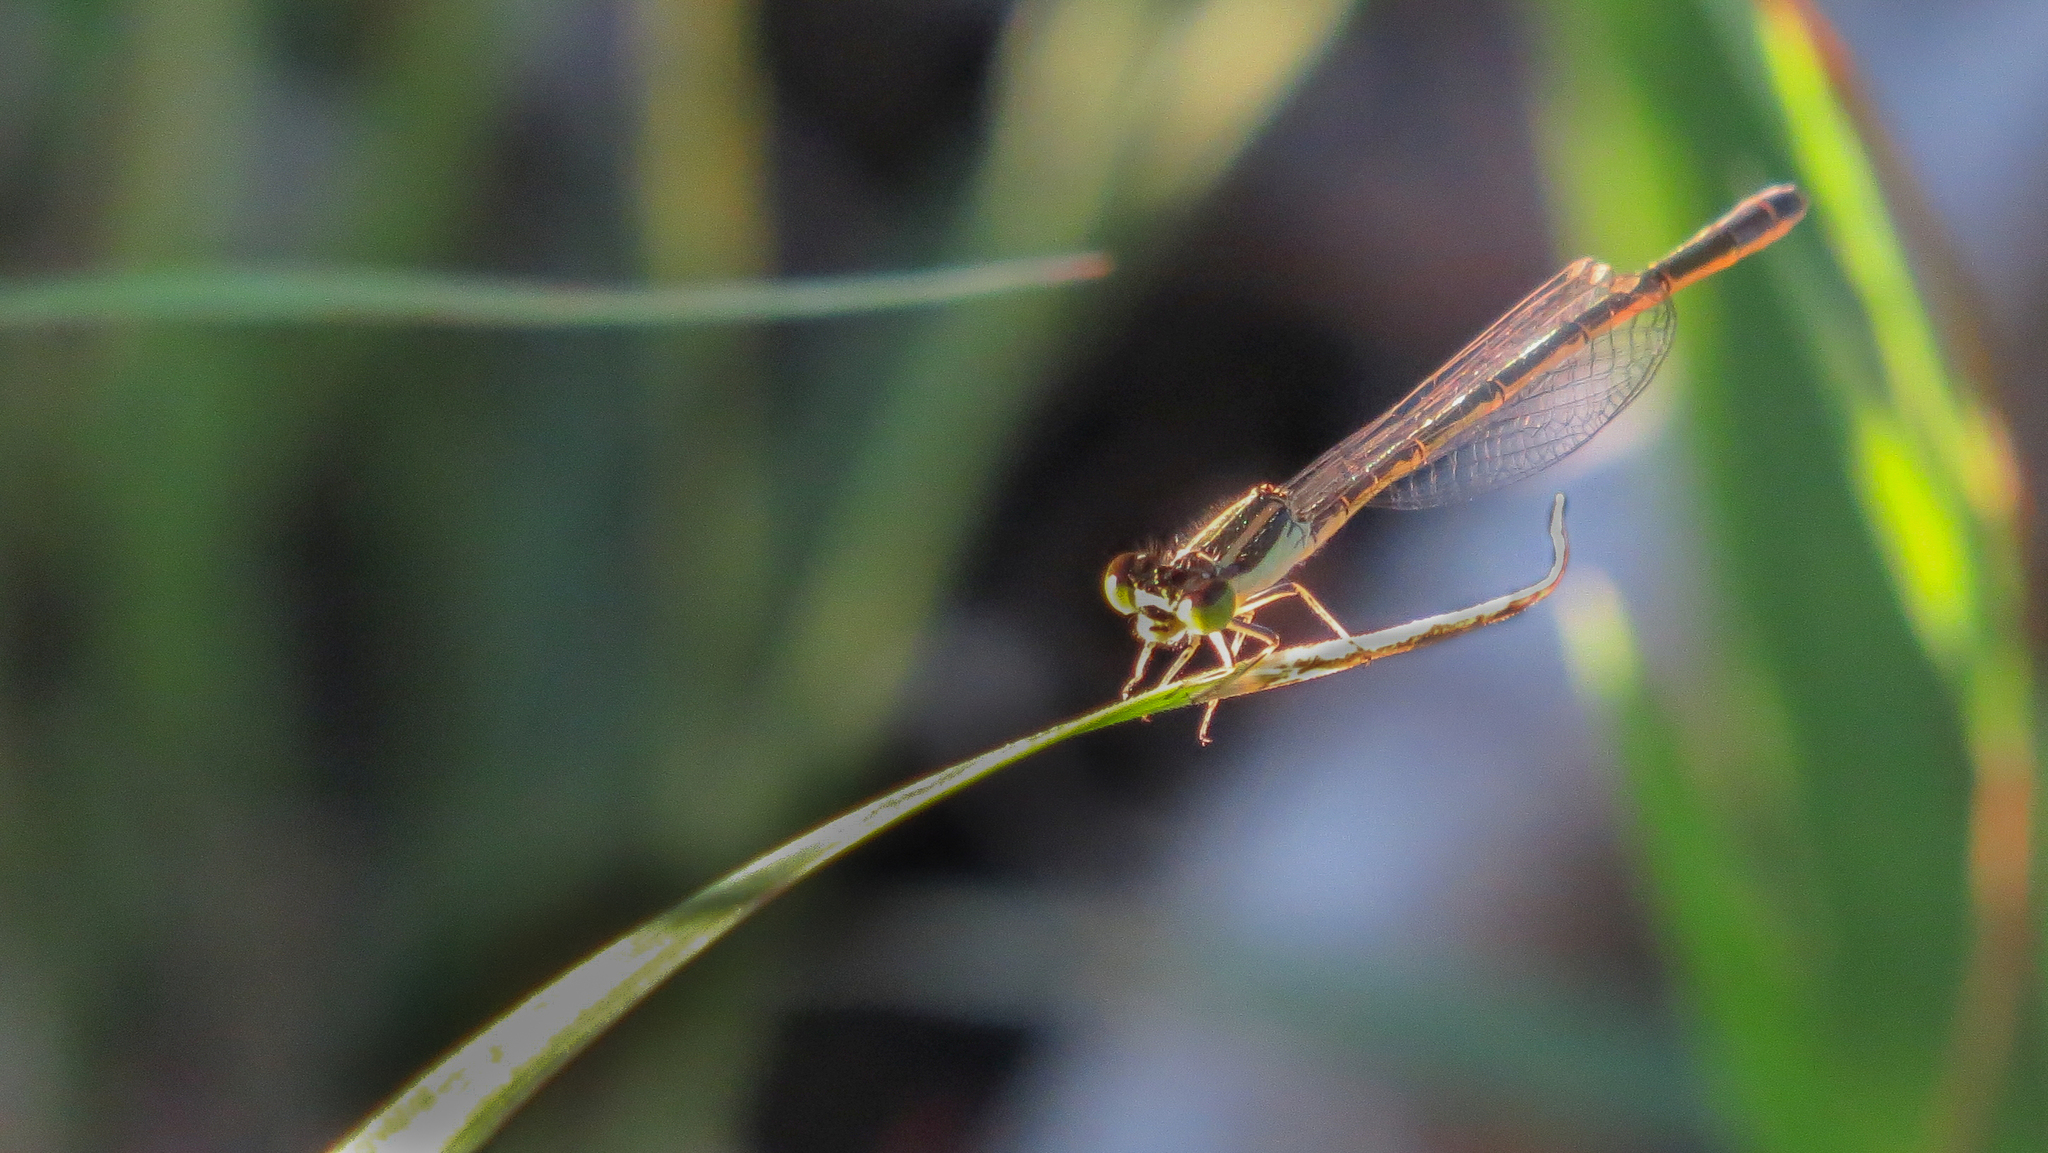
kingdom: Animalia
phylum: Arthropoda
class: Insecta
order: Odonata
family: Coenagrionidae
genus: Ischnura
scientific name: Ischnura aurora
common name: Gossamer damselfly
